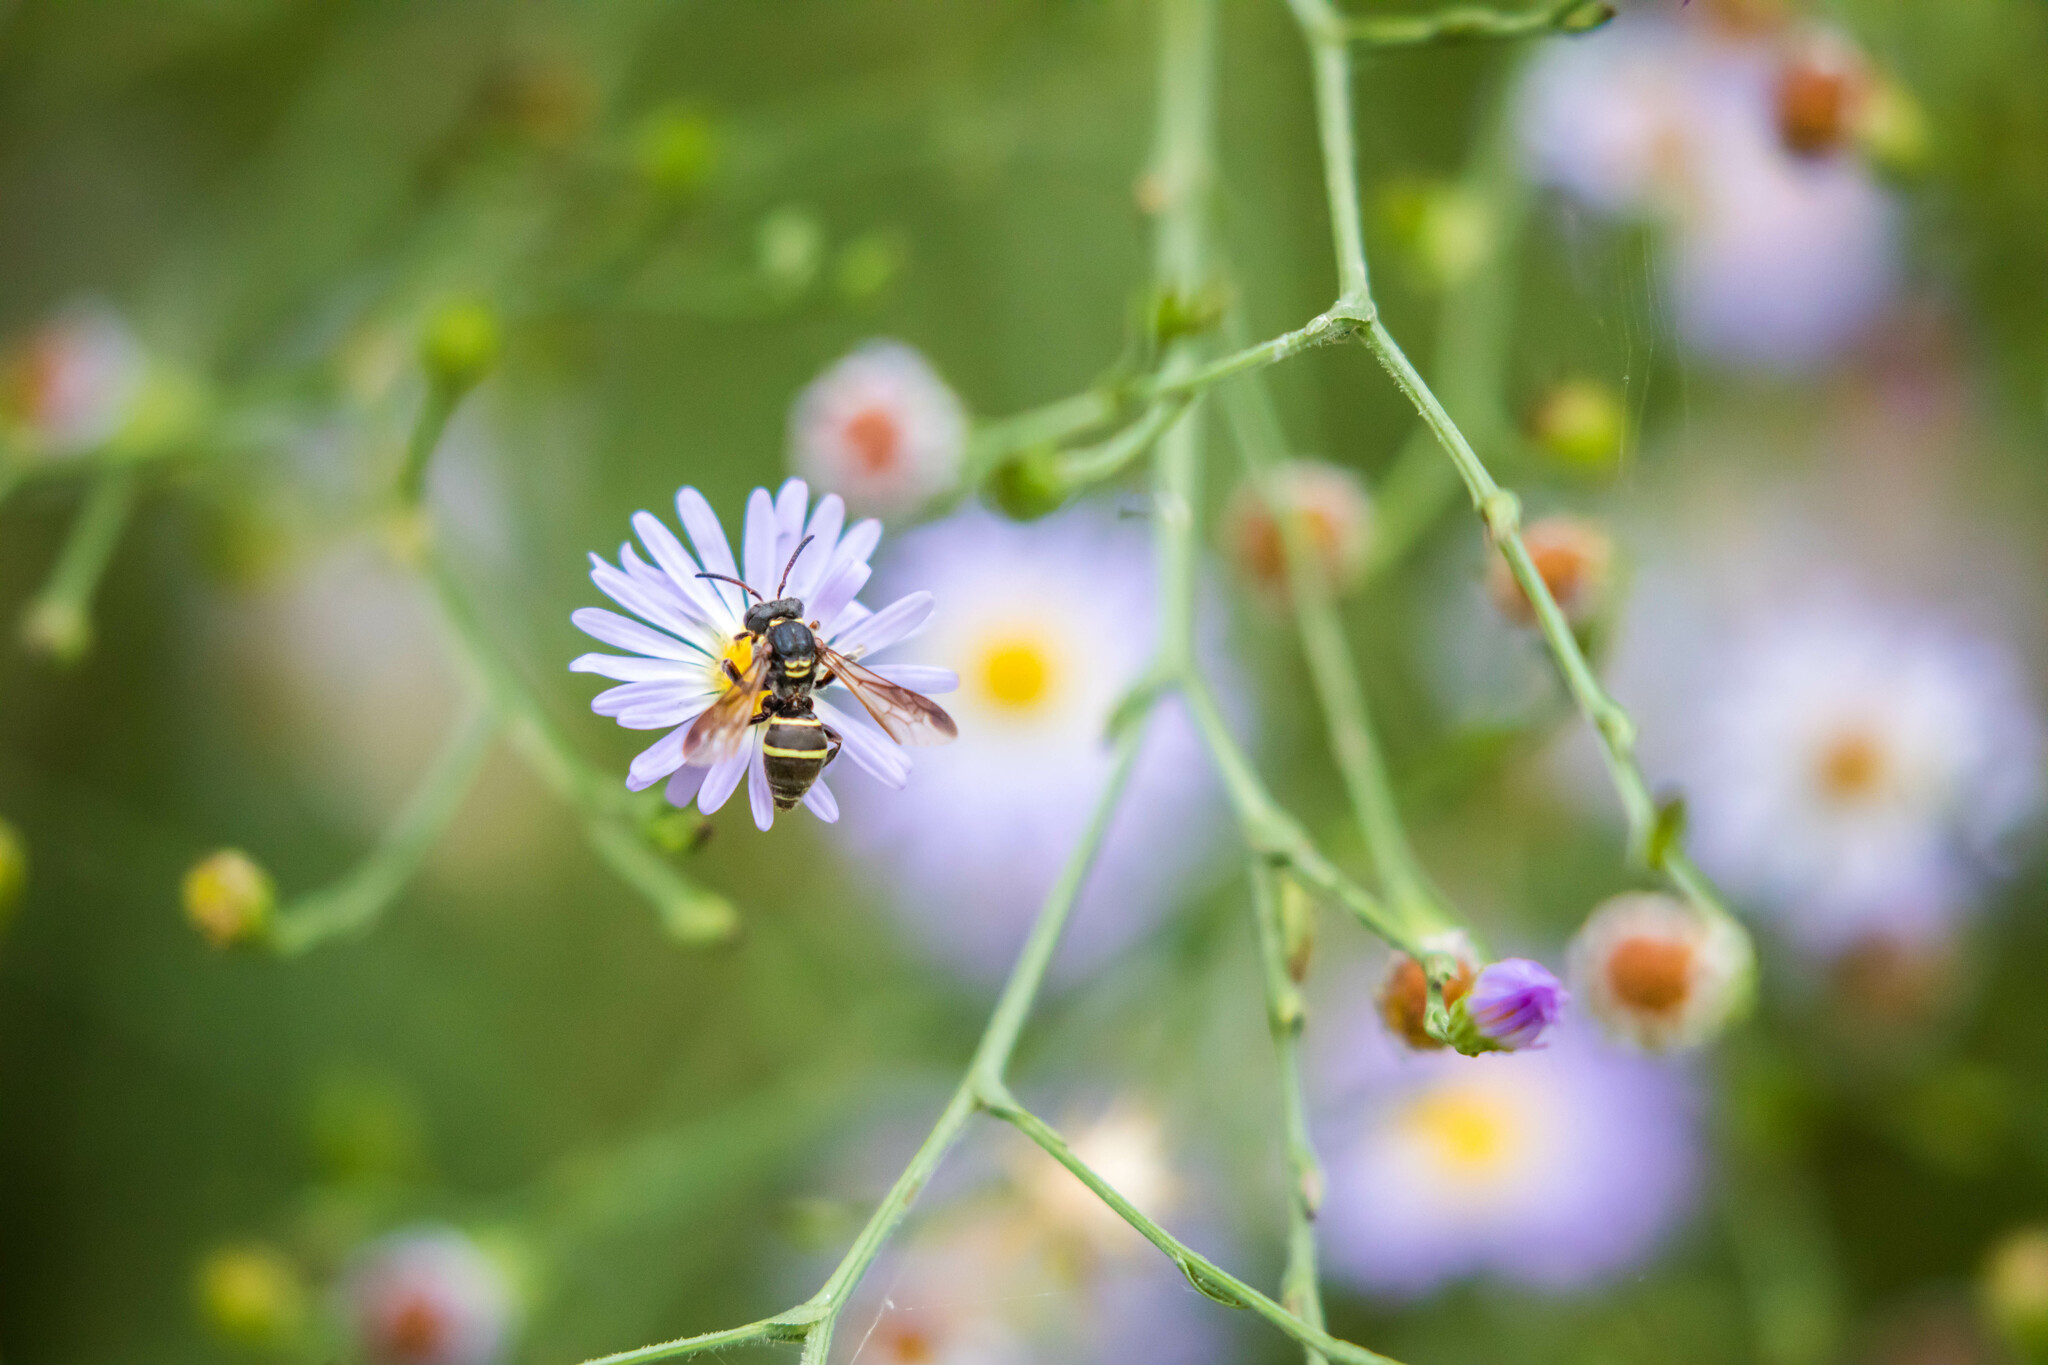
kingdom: Animalia
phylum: Arthropoda
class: Insecta
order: Hymenoptera
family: Apidae
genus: Nomada
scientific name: Nomada
